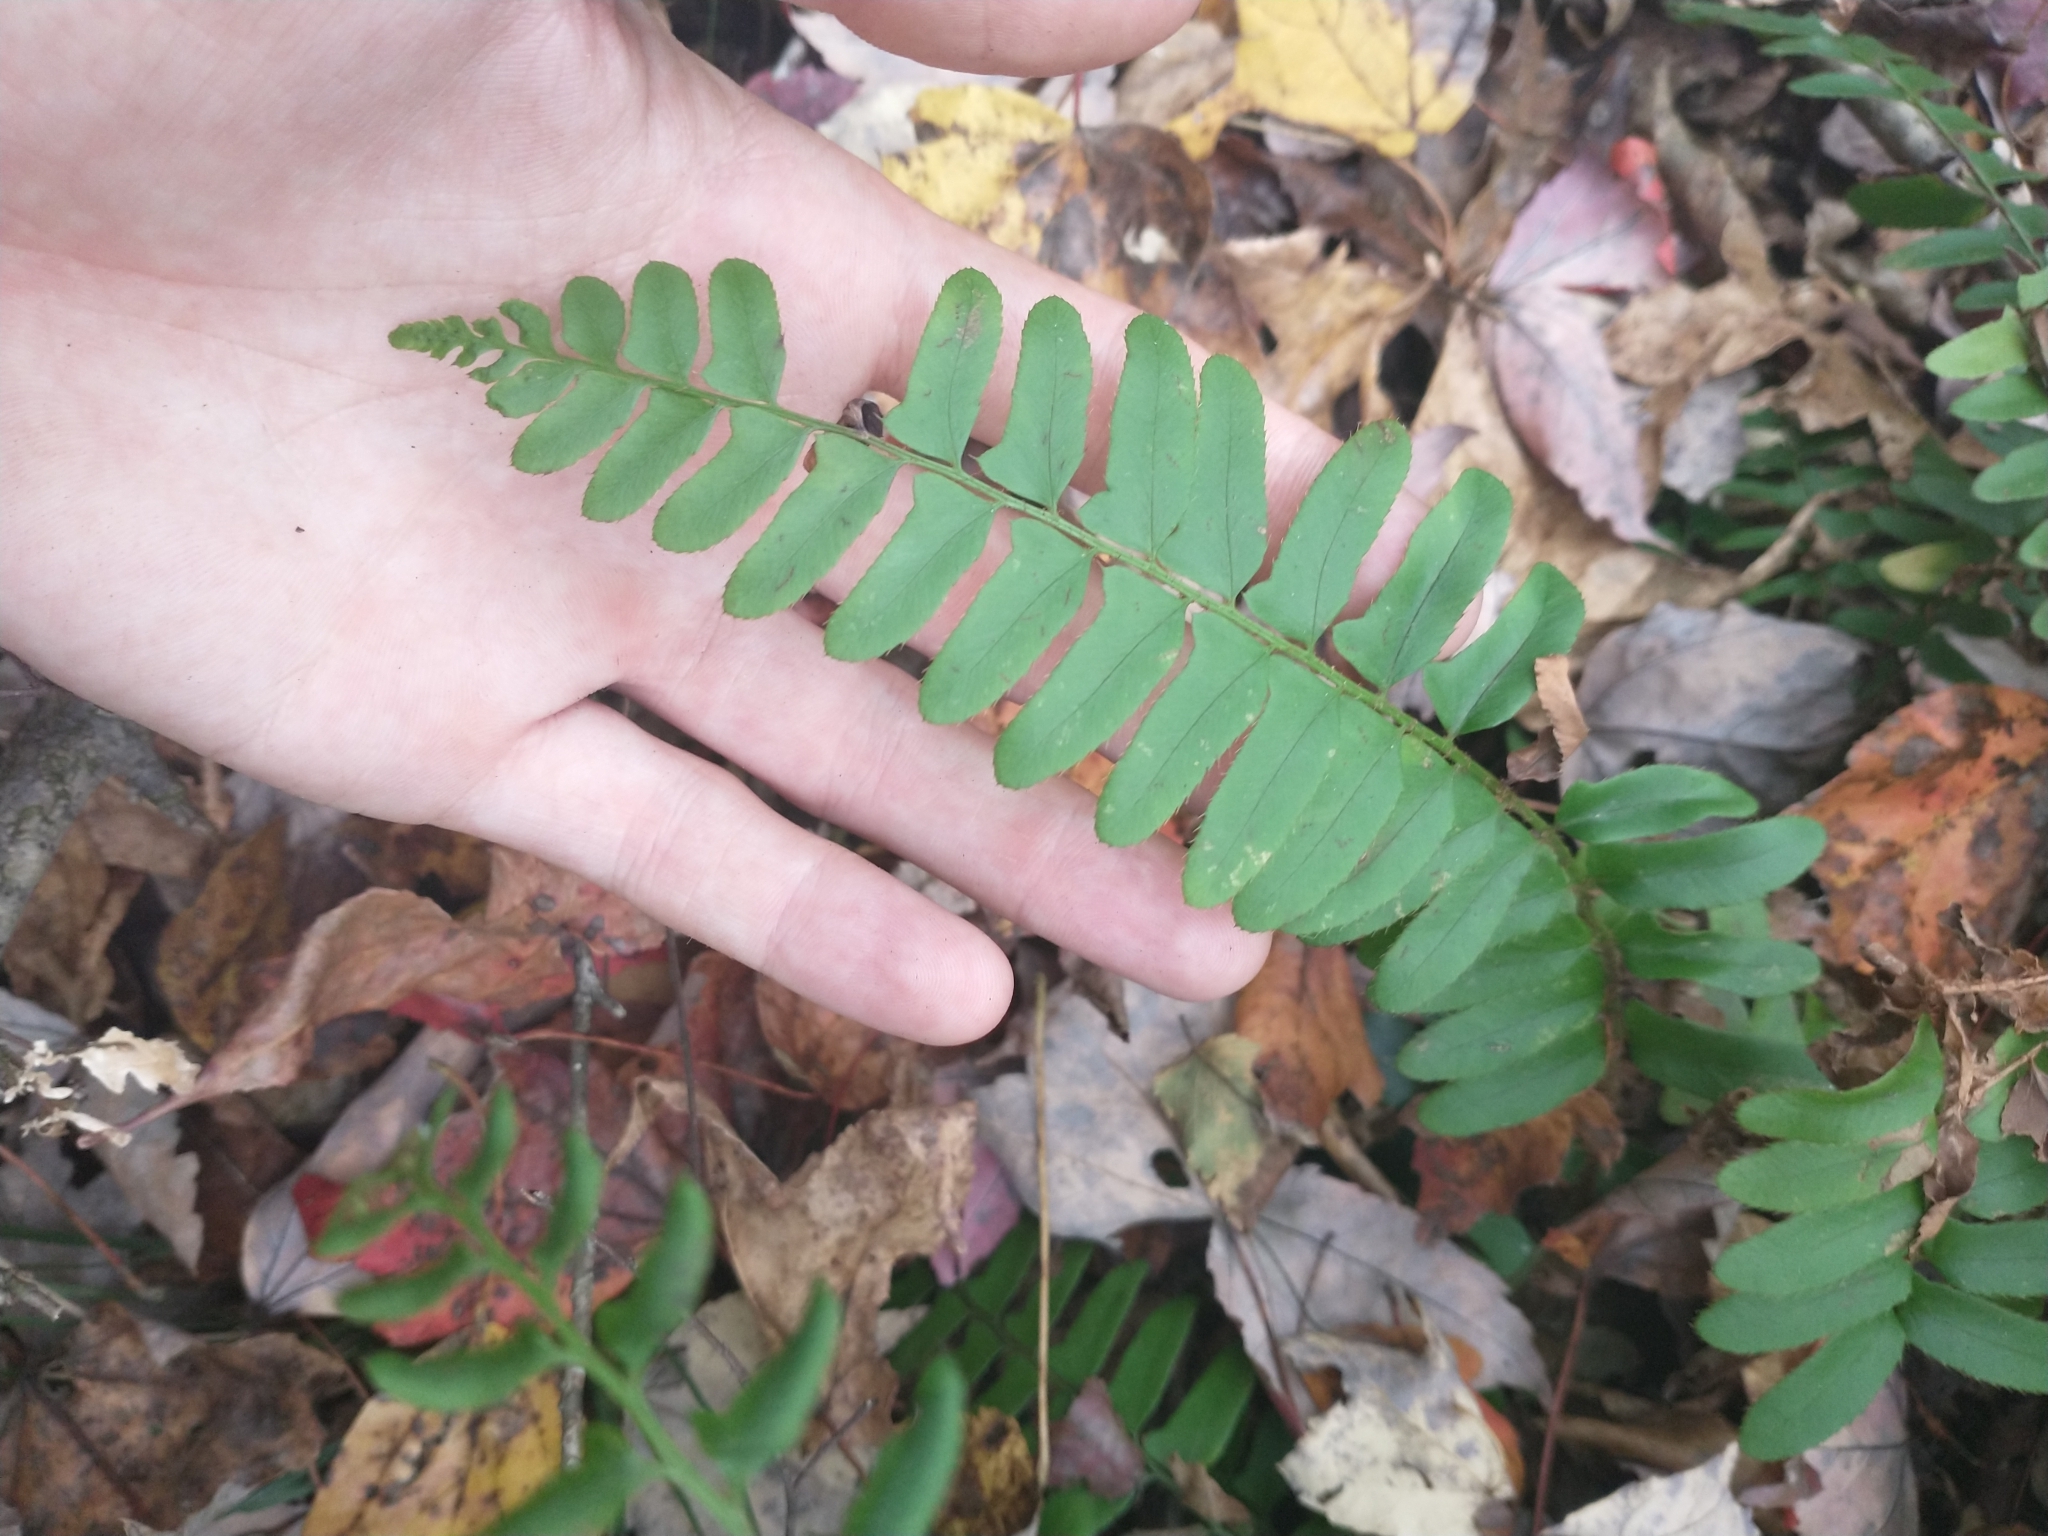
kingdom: Plantae
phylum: Tracheophyta
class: Polypodiopsida
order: Polypodiales
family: Dryopteridaceae
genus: Polystichum
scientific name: Polystichum acrostichoides
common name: Christmas fern
